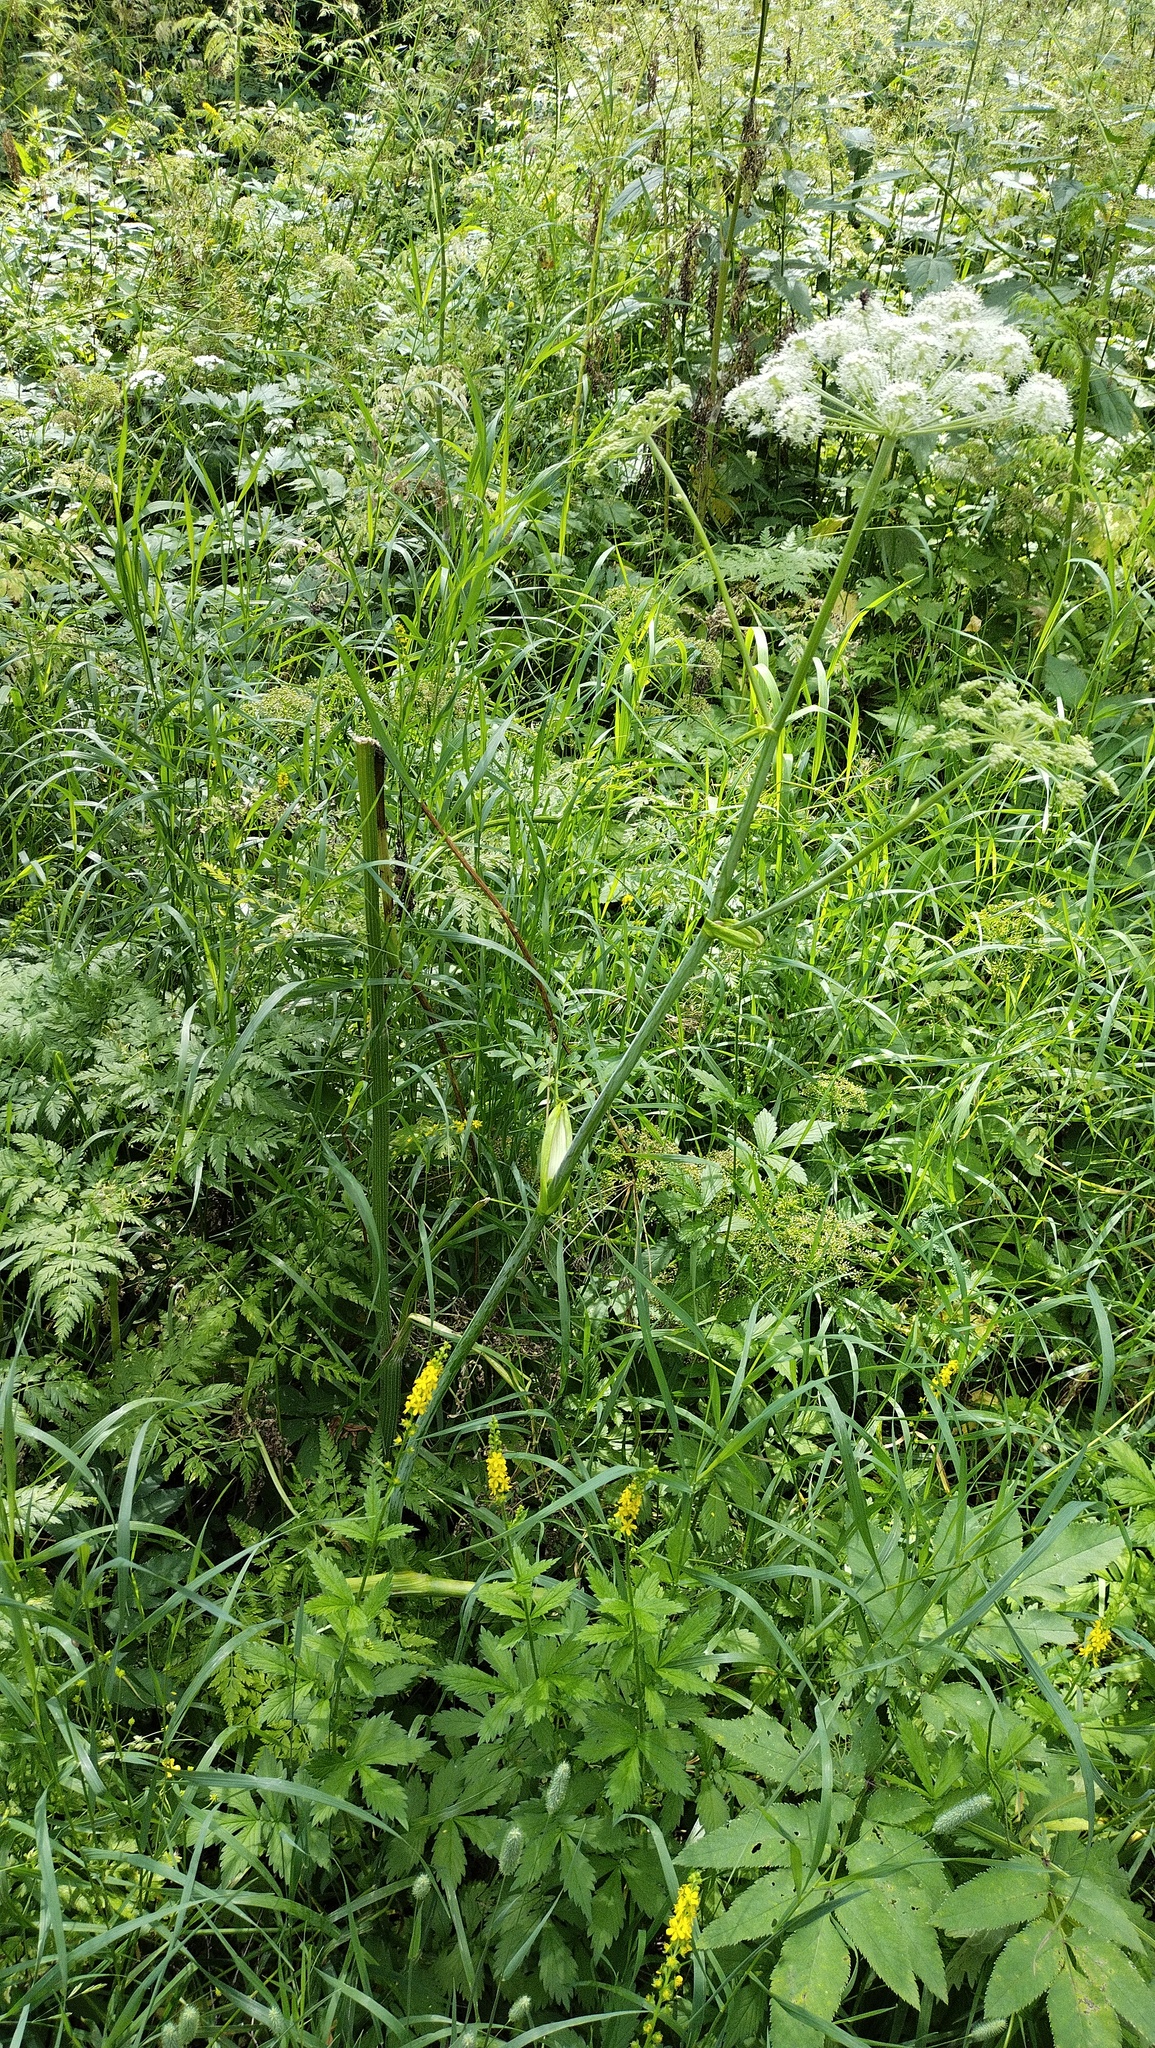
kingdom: Plantae
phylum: Tracheophyta
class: Magnoliopsida
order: Apiales
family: Apiaceae
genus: Angelica
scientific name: Angelica sylvestris
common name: Wild angelica
